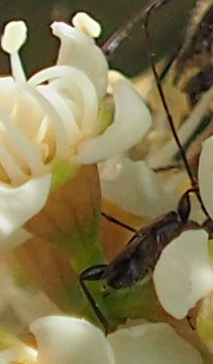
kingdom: Animalia
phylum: Arthropoda
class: Insecta
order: Coleoptera
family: Cerambycidae
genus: Molorchus
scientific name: Molorchus bimaculatus
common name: Bimaculate longhorn beetle
